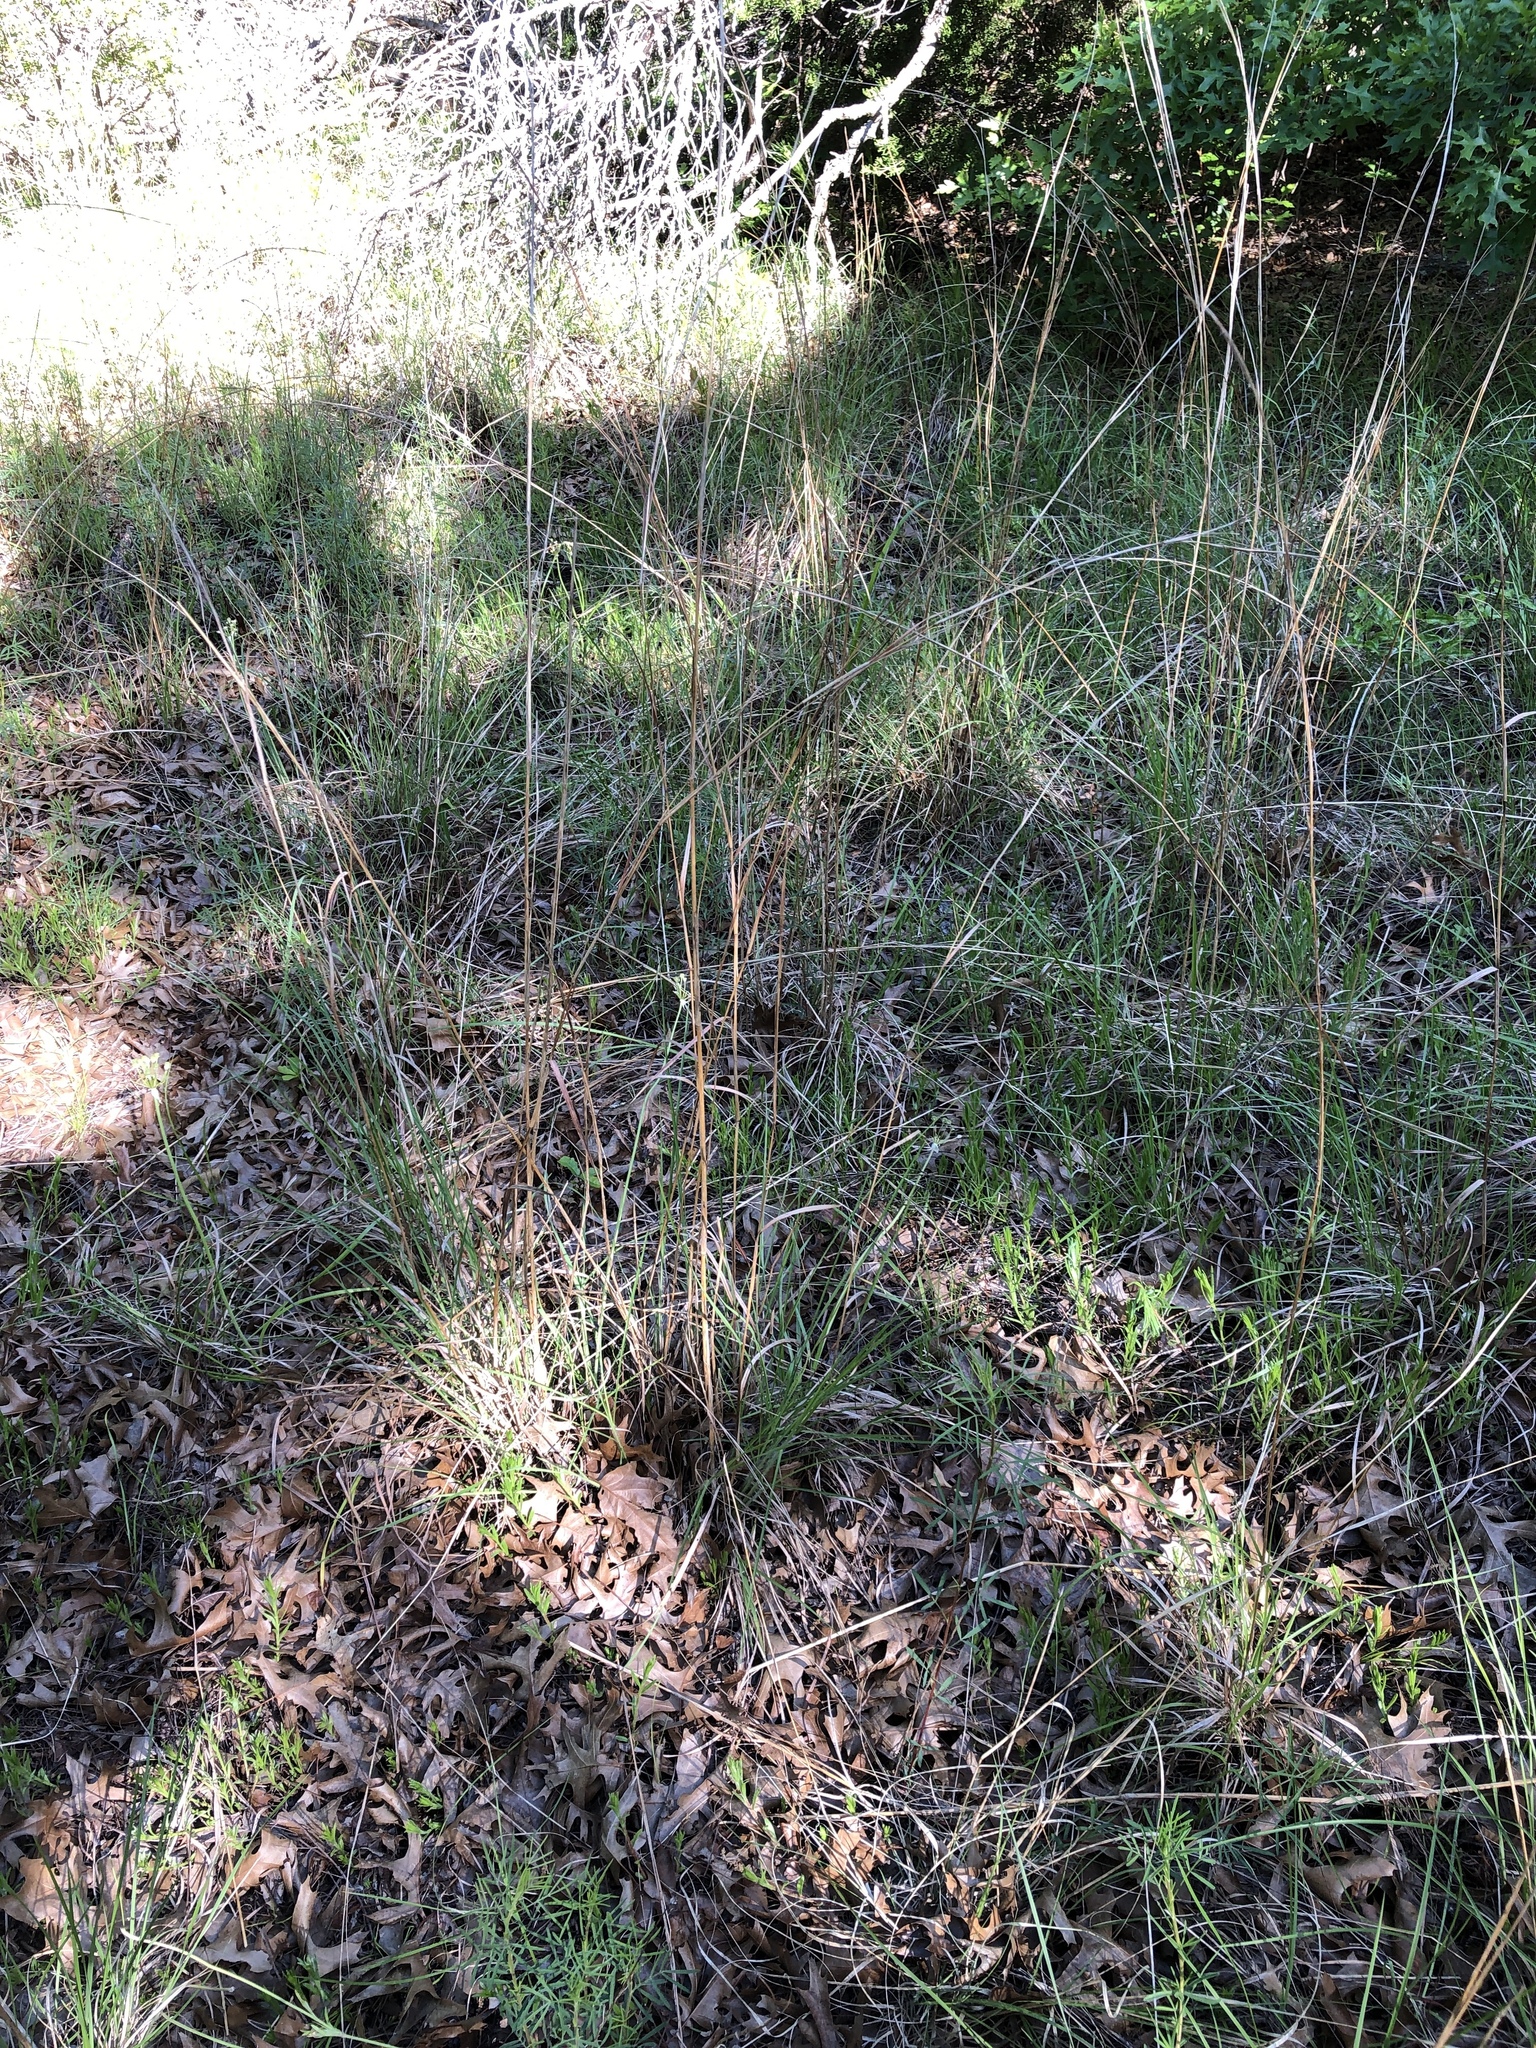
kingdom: Plantae
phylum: Tracheophyta
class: Liliopsida
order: Poales
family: Poaceae
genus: Schizachyrium
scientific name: Schizachyrium scoparium
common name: Little bluestem
